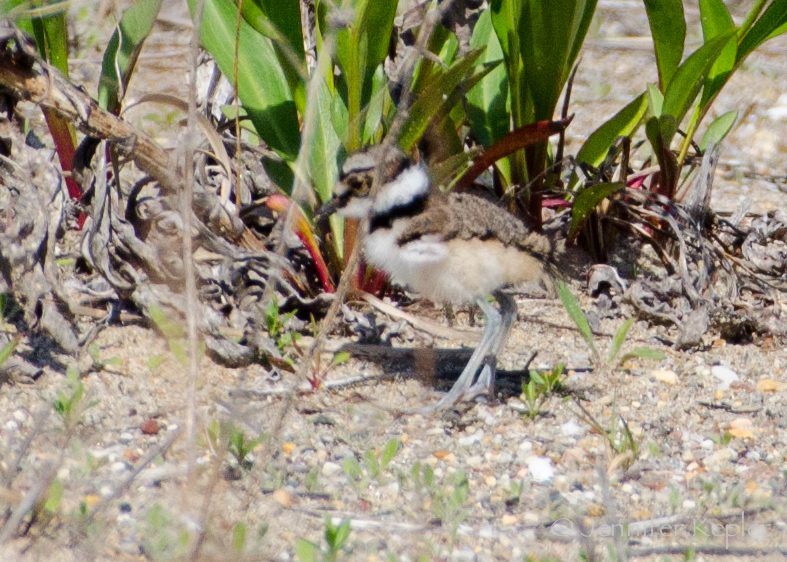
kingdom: Animalia
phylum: Chordata
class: Aves
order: Charadriiformes
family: Charadriidae
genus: Charadrius
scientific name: Charadrius vociferus
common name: Killdeer
